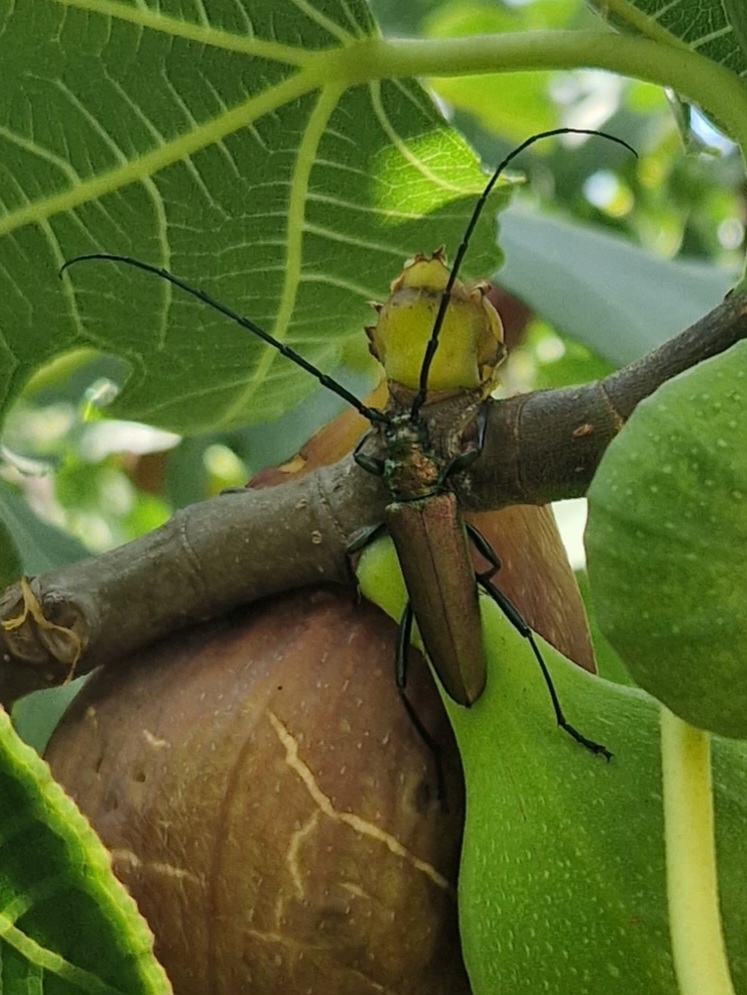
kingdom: Animalia
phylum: Arthropoda
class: Insecta
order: Coleoptera
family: Cerambycidae
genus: Aromia
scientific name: Aromia moschata
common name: Musk beetle
